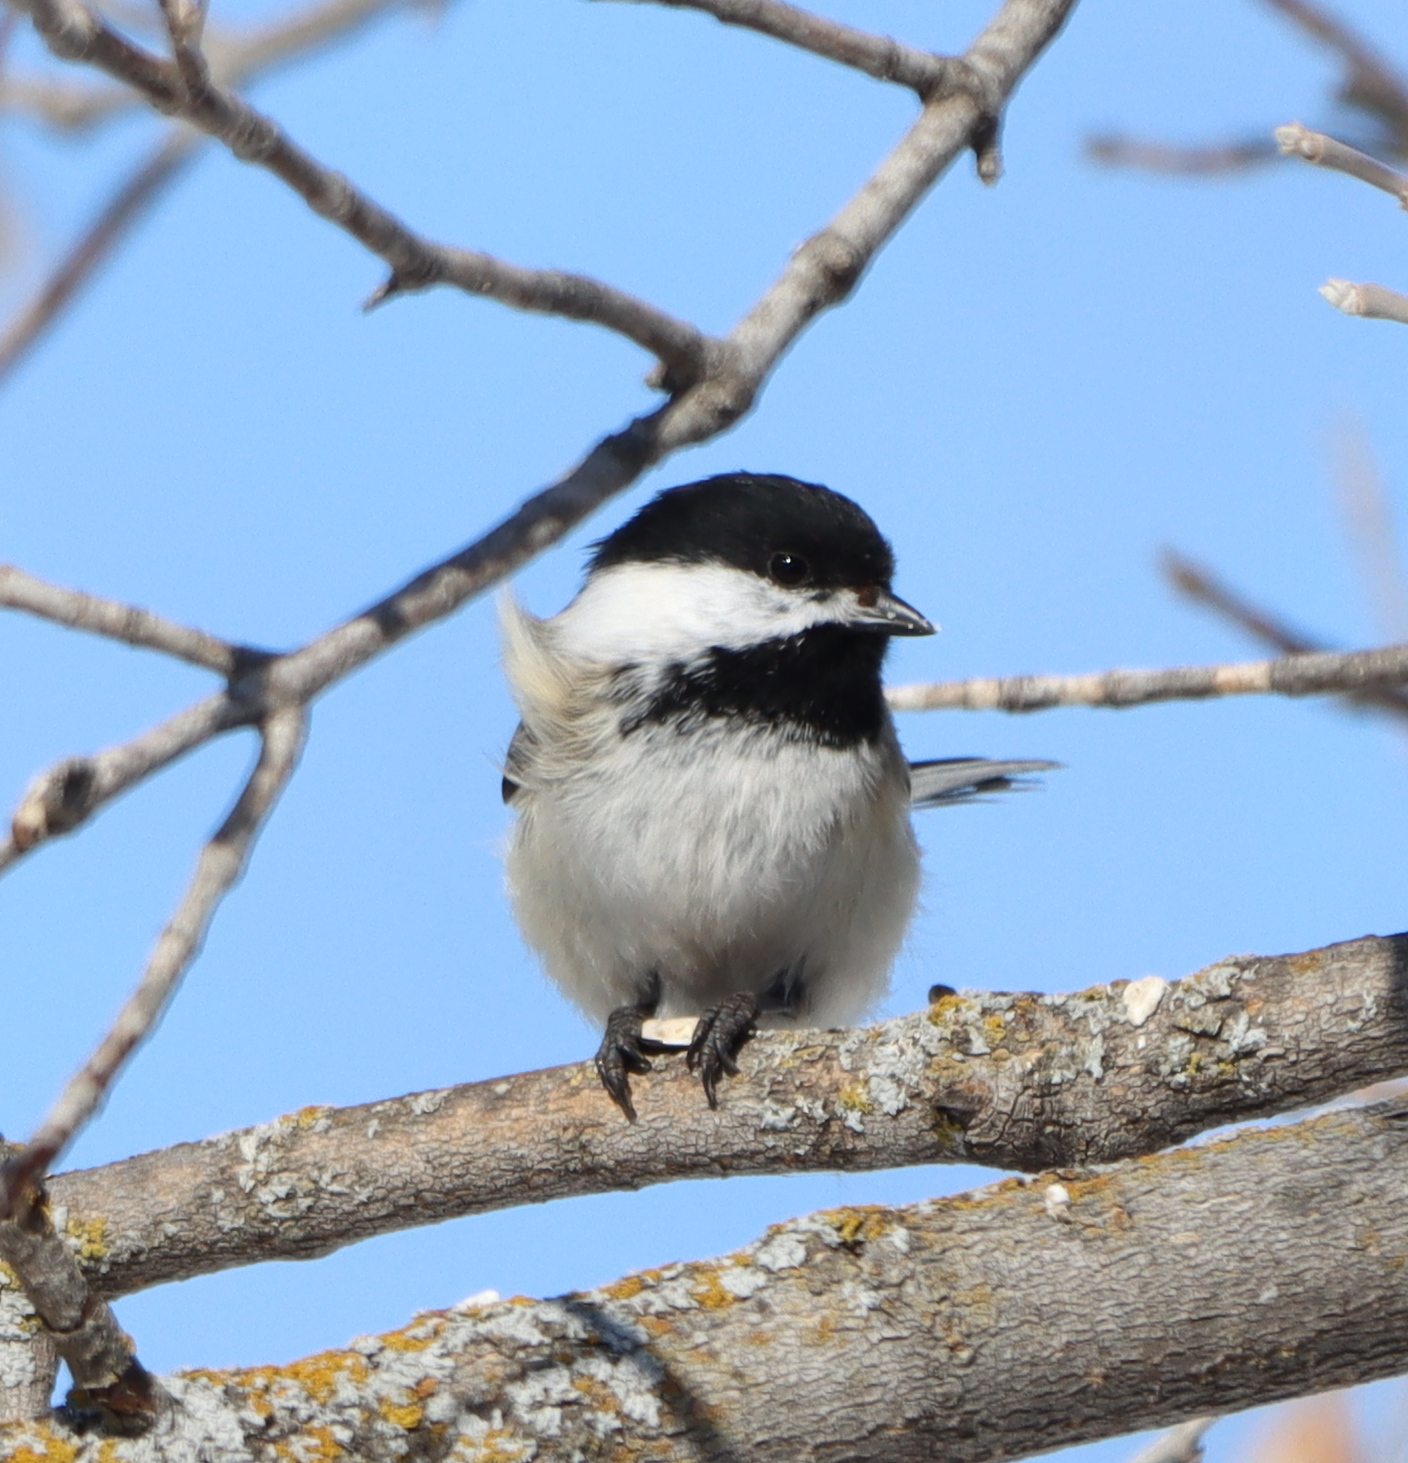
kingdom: Animalia
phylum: Chordata
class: Aves
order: Passeriformes
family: Paridae
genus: Poecile
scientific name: Poecile atricapillus
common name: Black-capped chickadee
